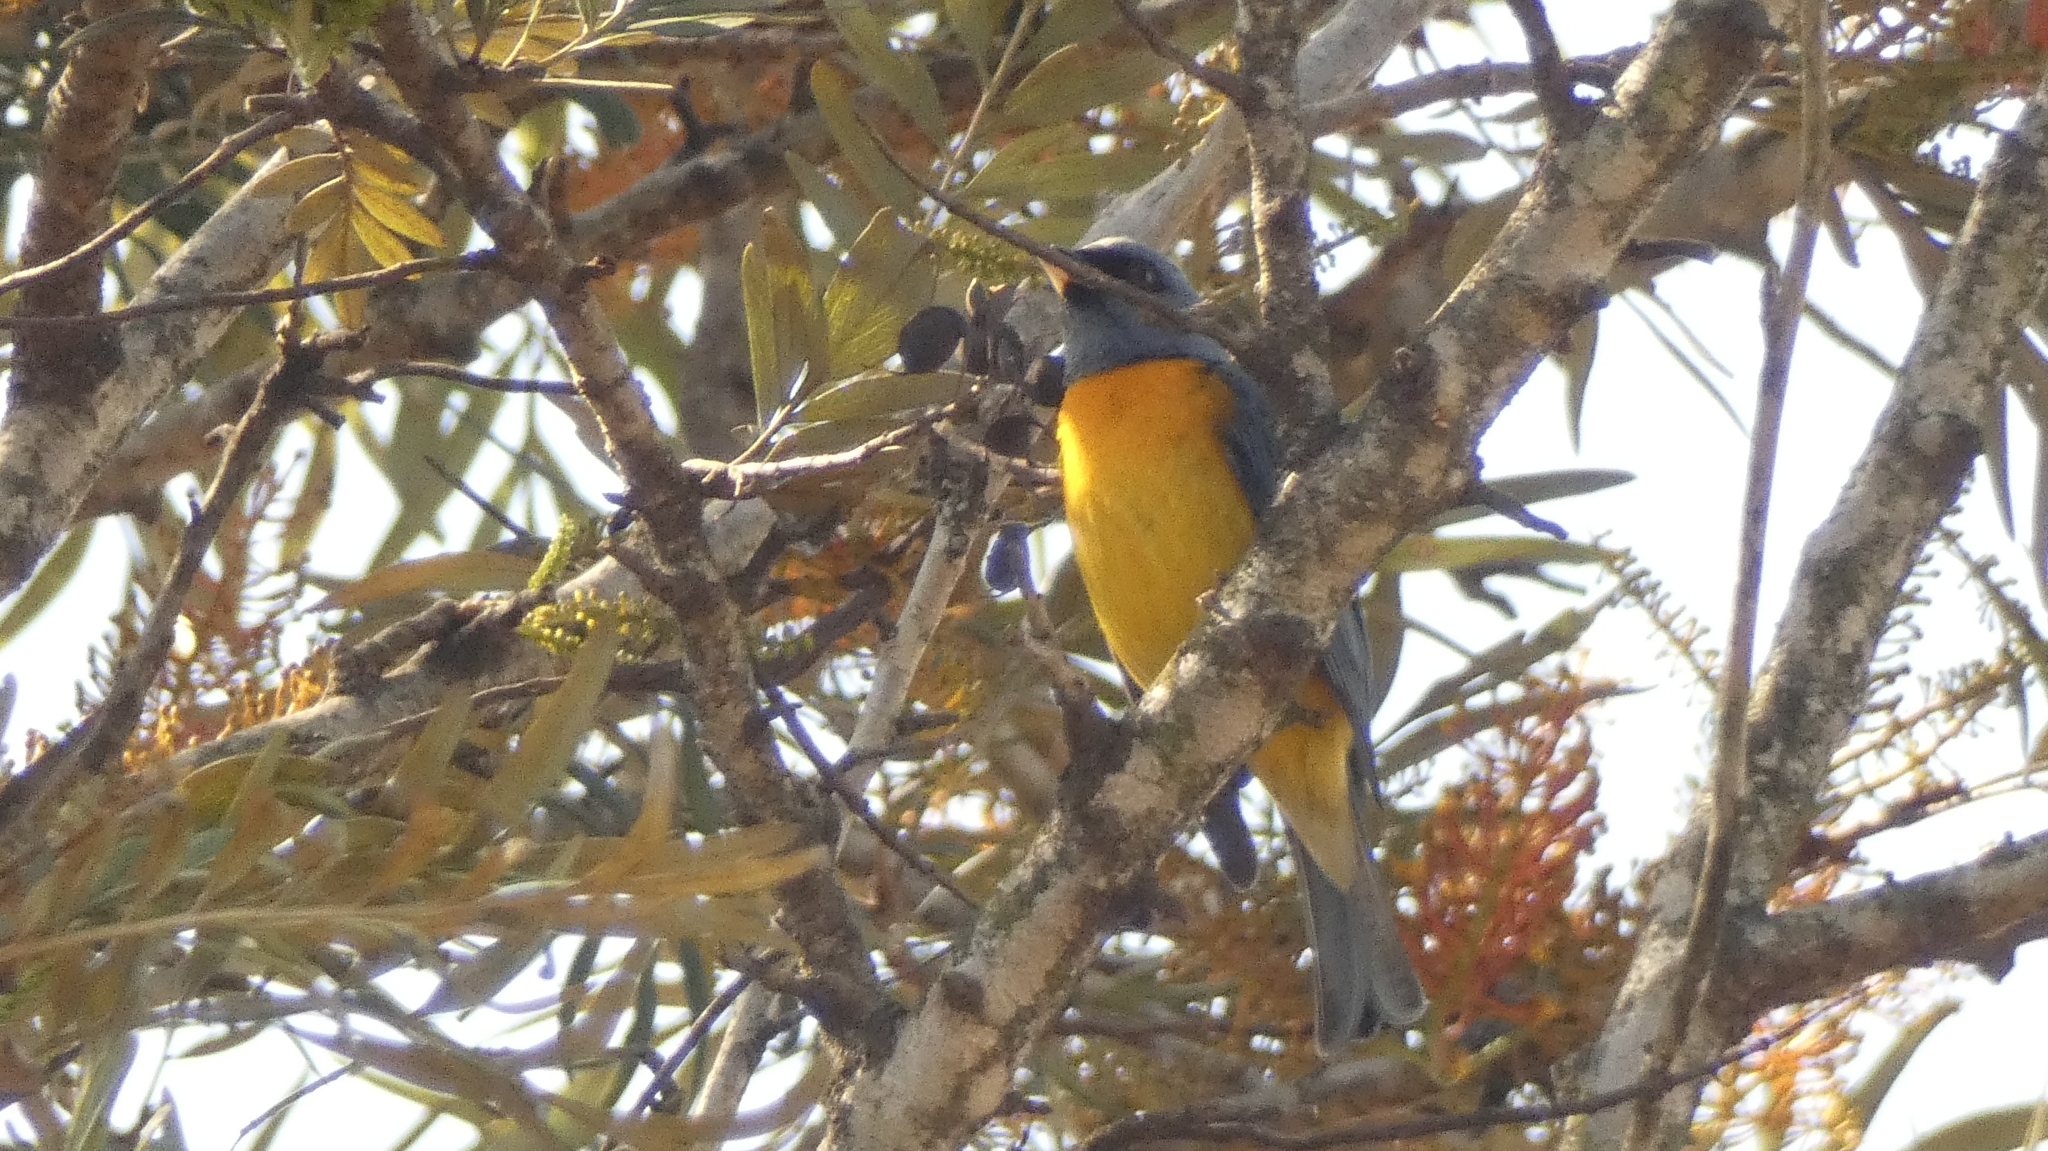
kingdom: Animalia
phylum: Chordata
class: Aves
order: Passeriformes
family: Thraupidae
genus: Rauenia
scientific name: Rauenia bonariensis
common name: Blue-and-yellow tanager
